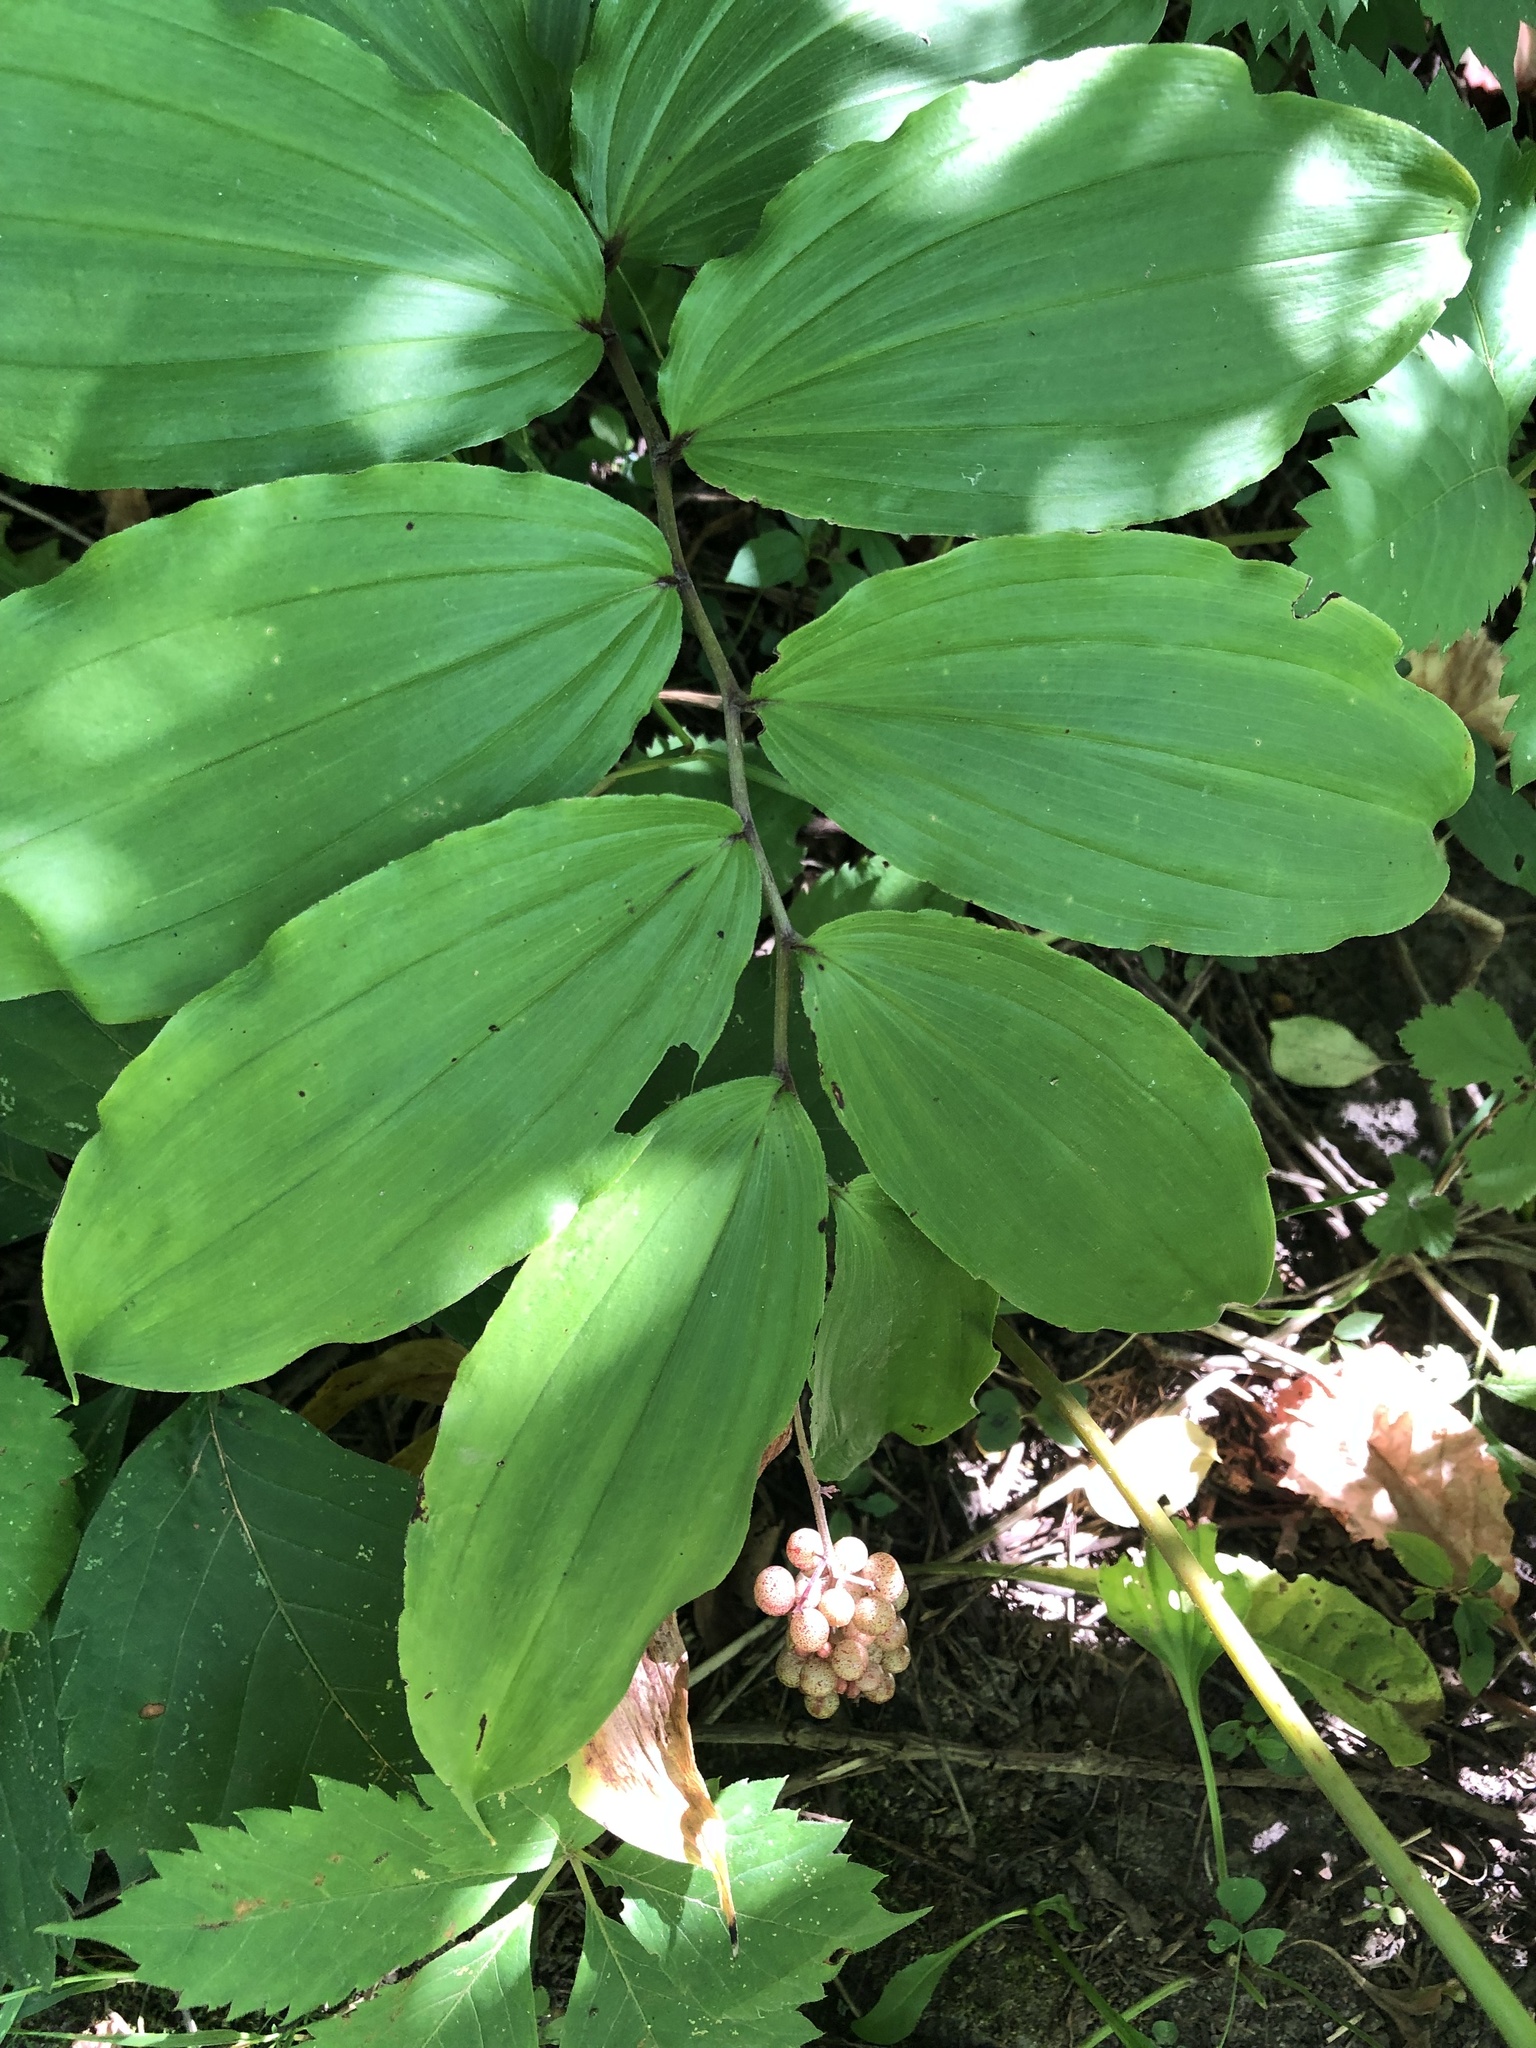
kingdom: Plantae
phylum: Tracheophyta
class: Liliopsida
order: Asparagales
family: Asparagaceae
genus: Maianthemum
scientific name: Maianthemum racemosum
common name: False spikenard
